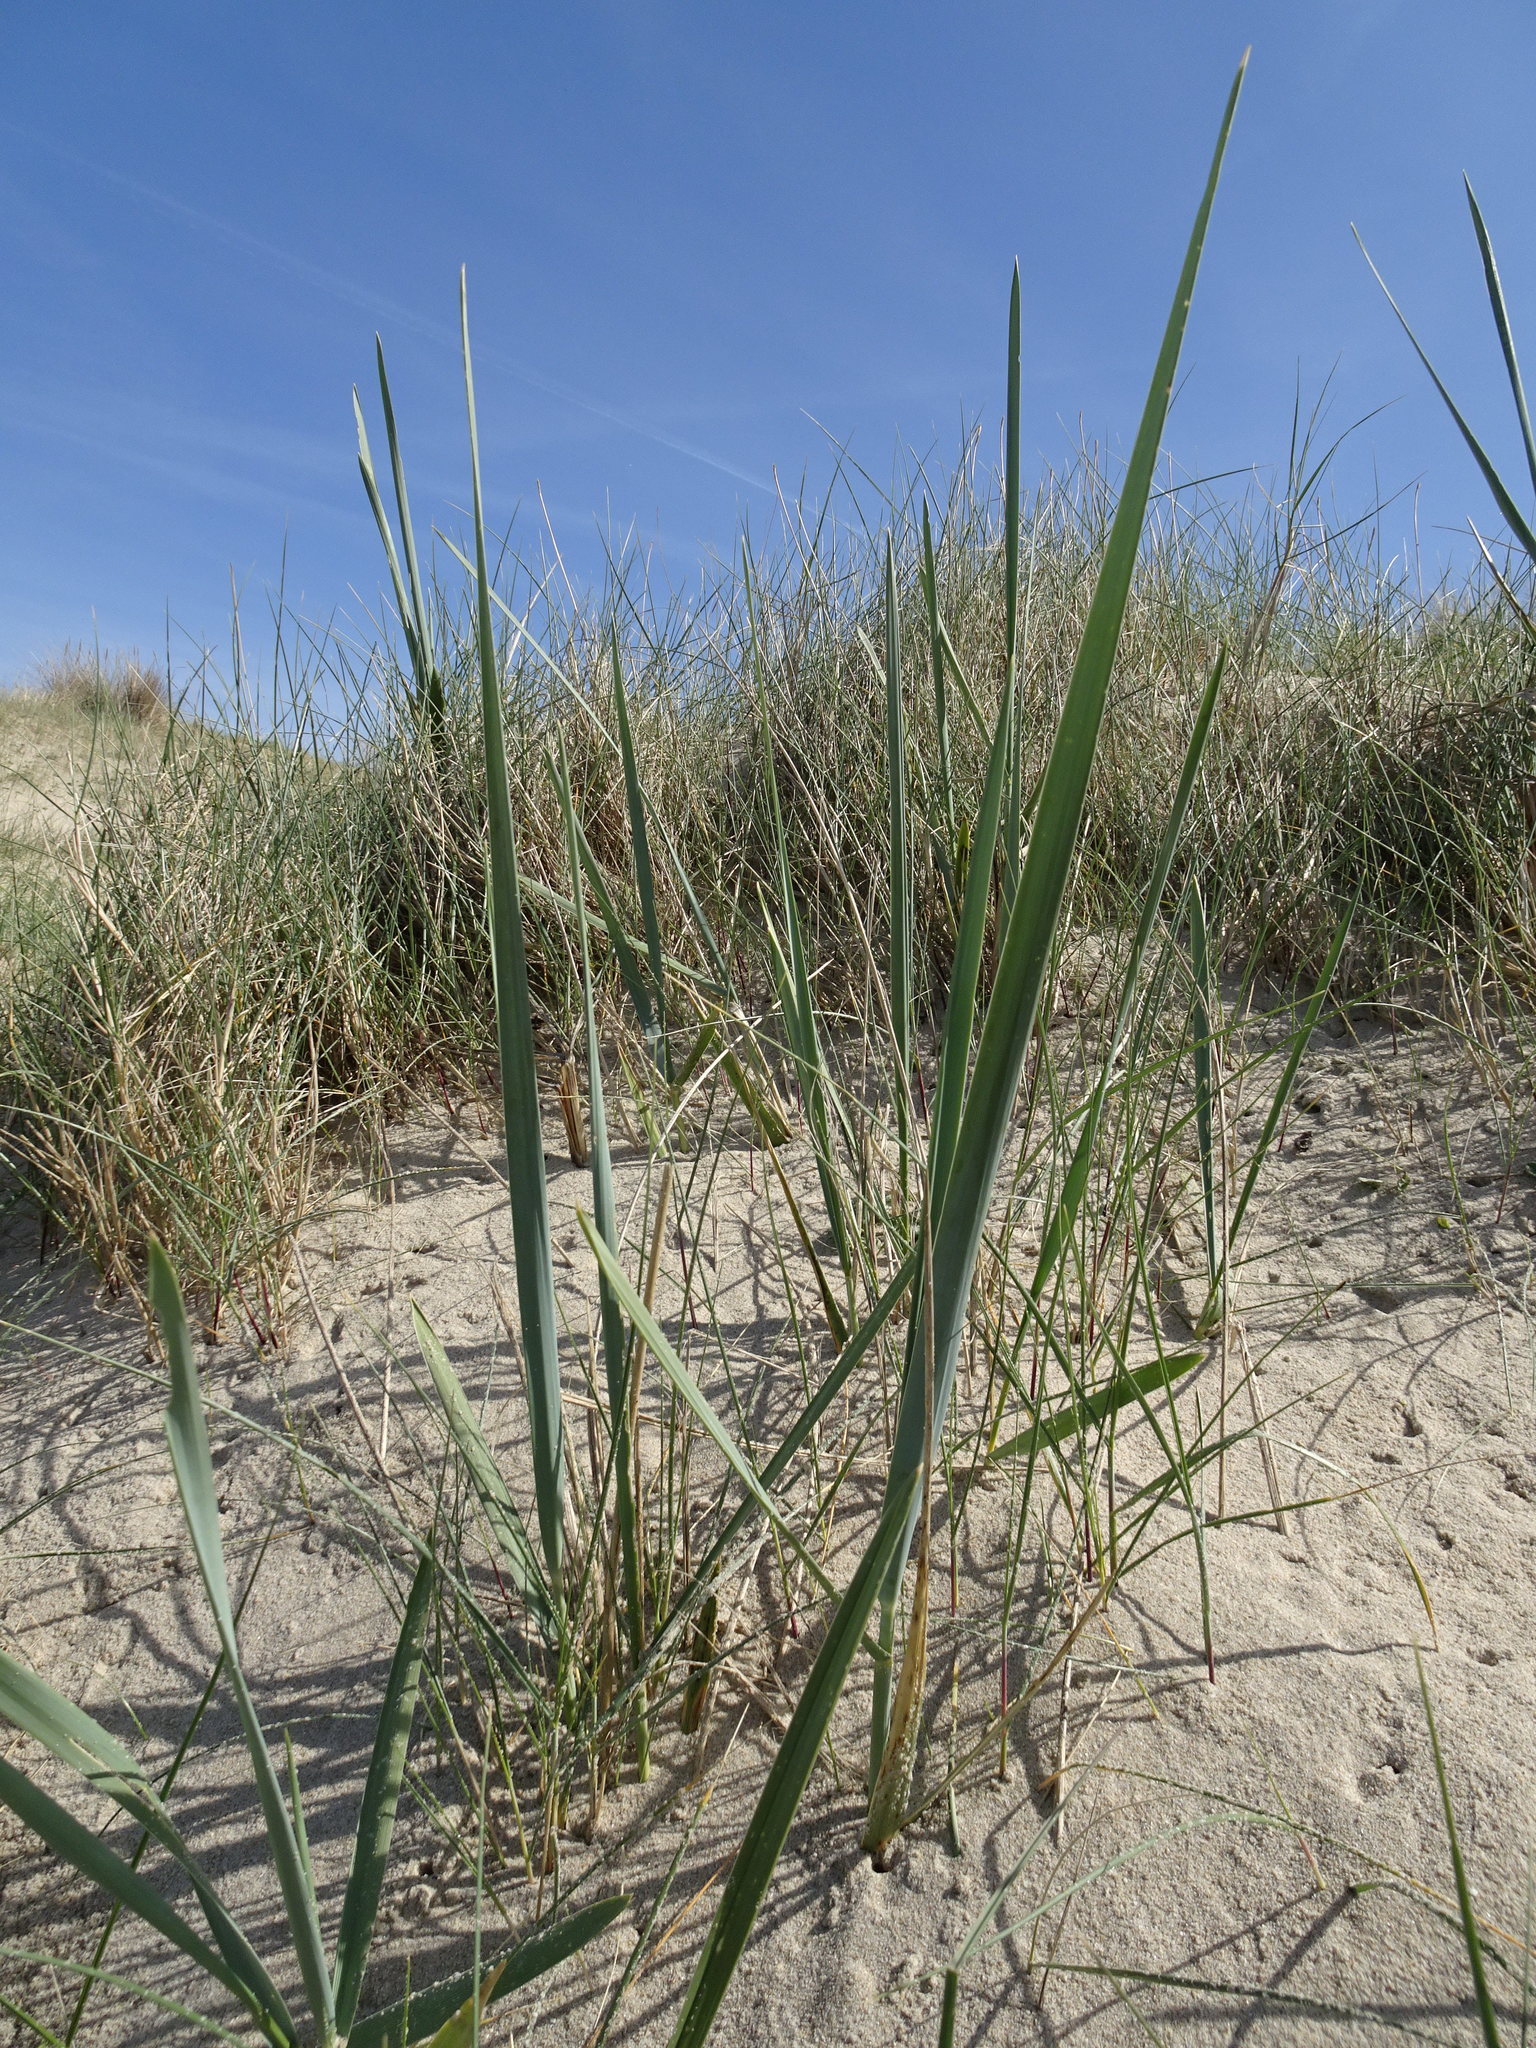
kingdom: Plantae
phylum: Tracheophyta
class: Liliopsida
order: Poales
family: Poaceae
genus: Leymus
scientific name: Leymus arenarius
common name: Lyme-grass
